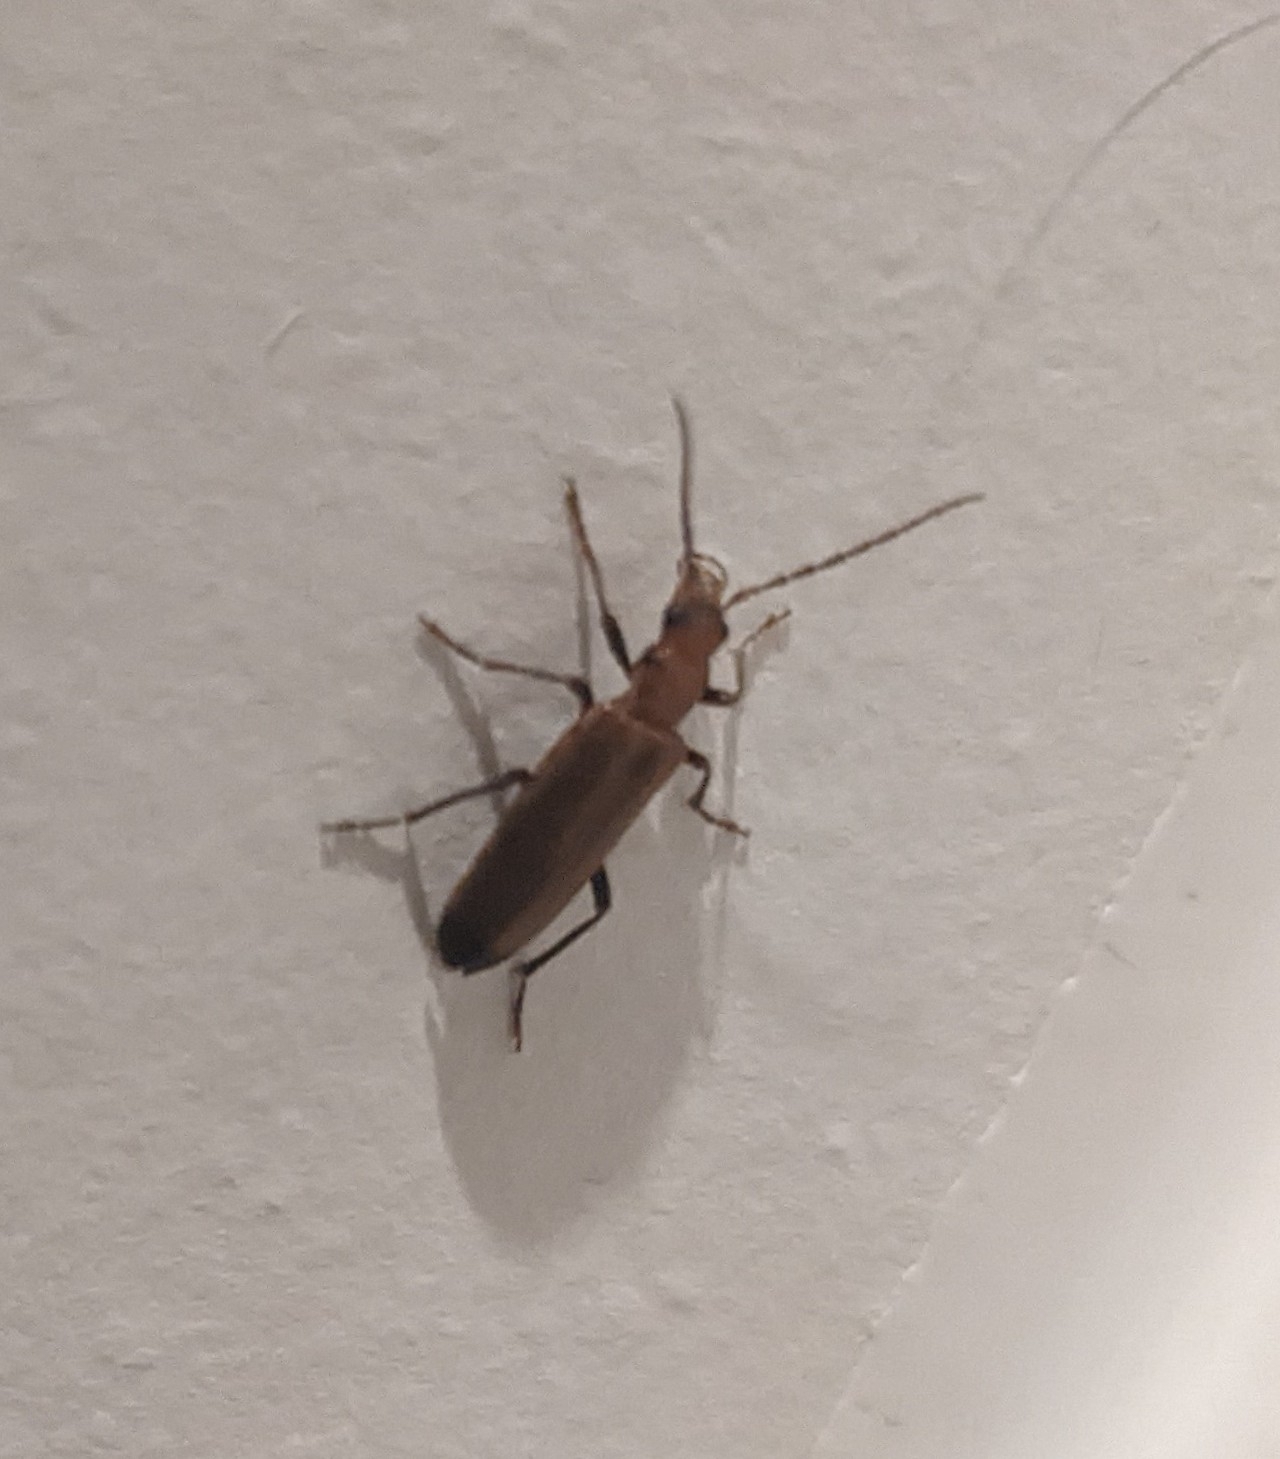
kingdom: Animalia
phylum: Arthropoda
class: Insecta
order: Coleoptera
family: Oedemeridae
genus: Nacerdes
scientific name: Nacerdes melanura
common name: Wharf borer
